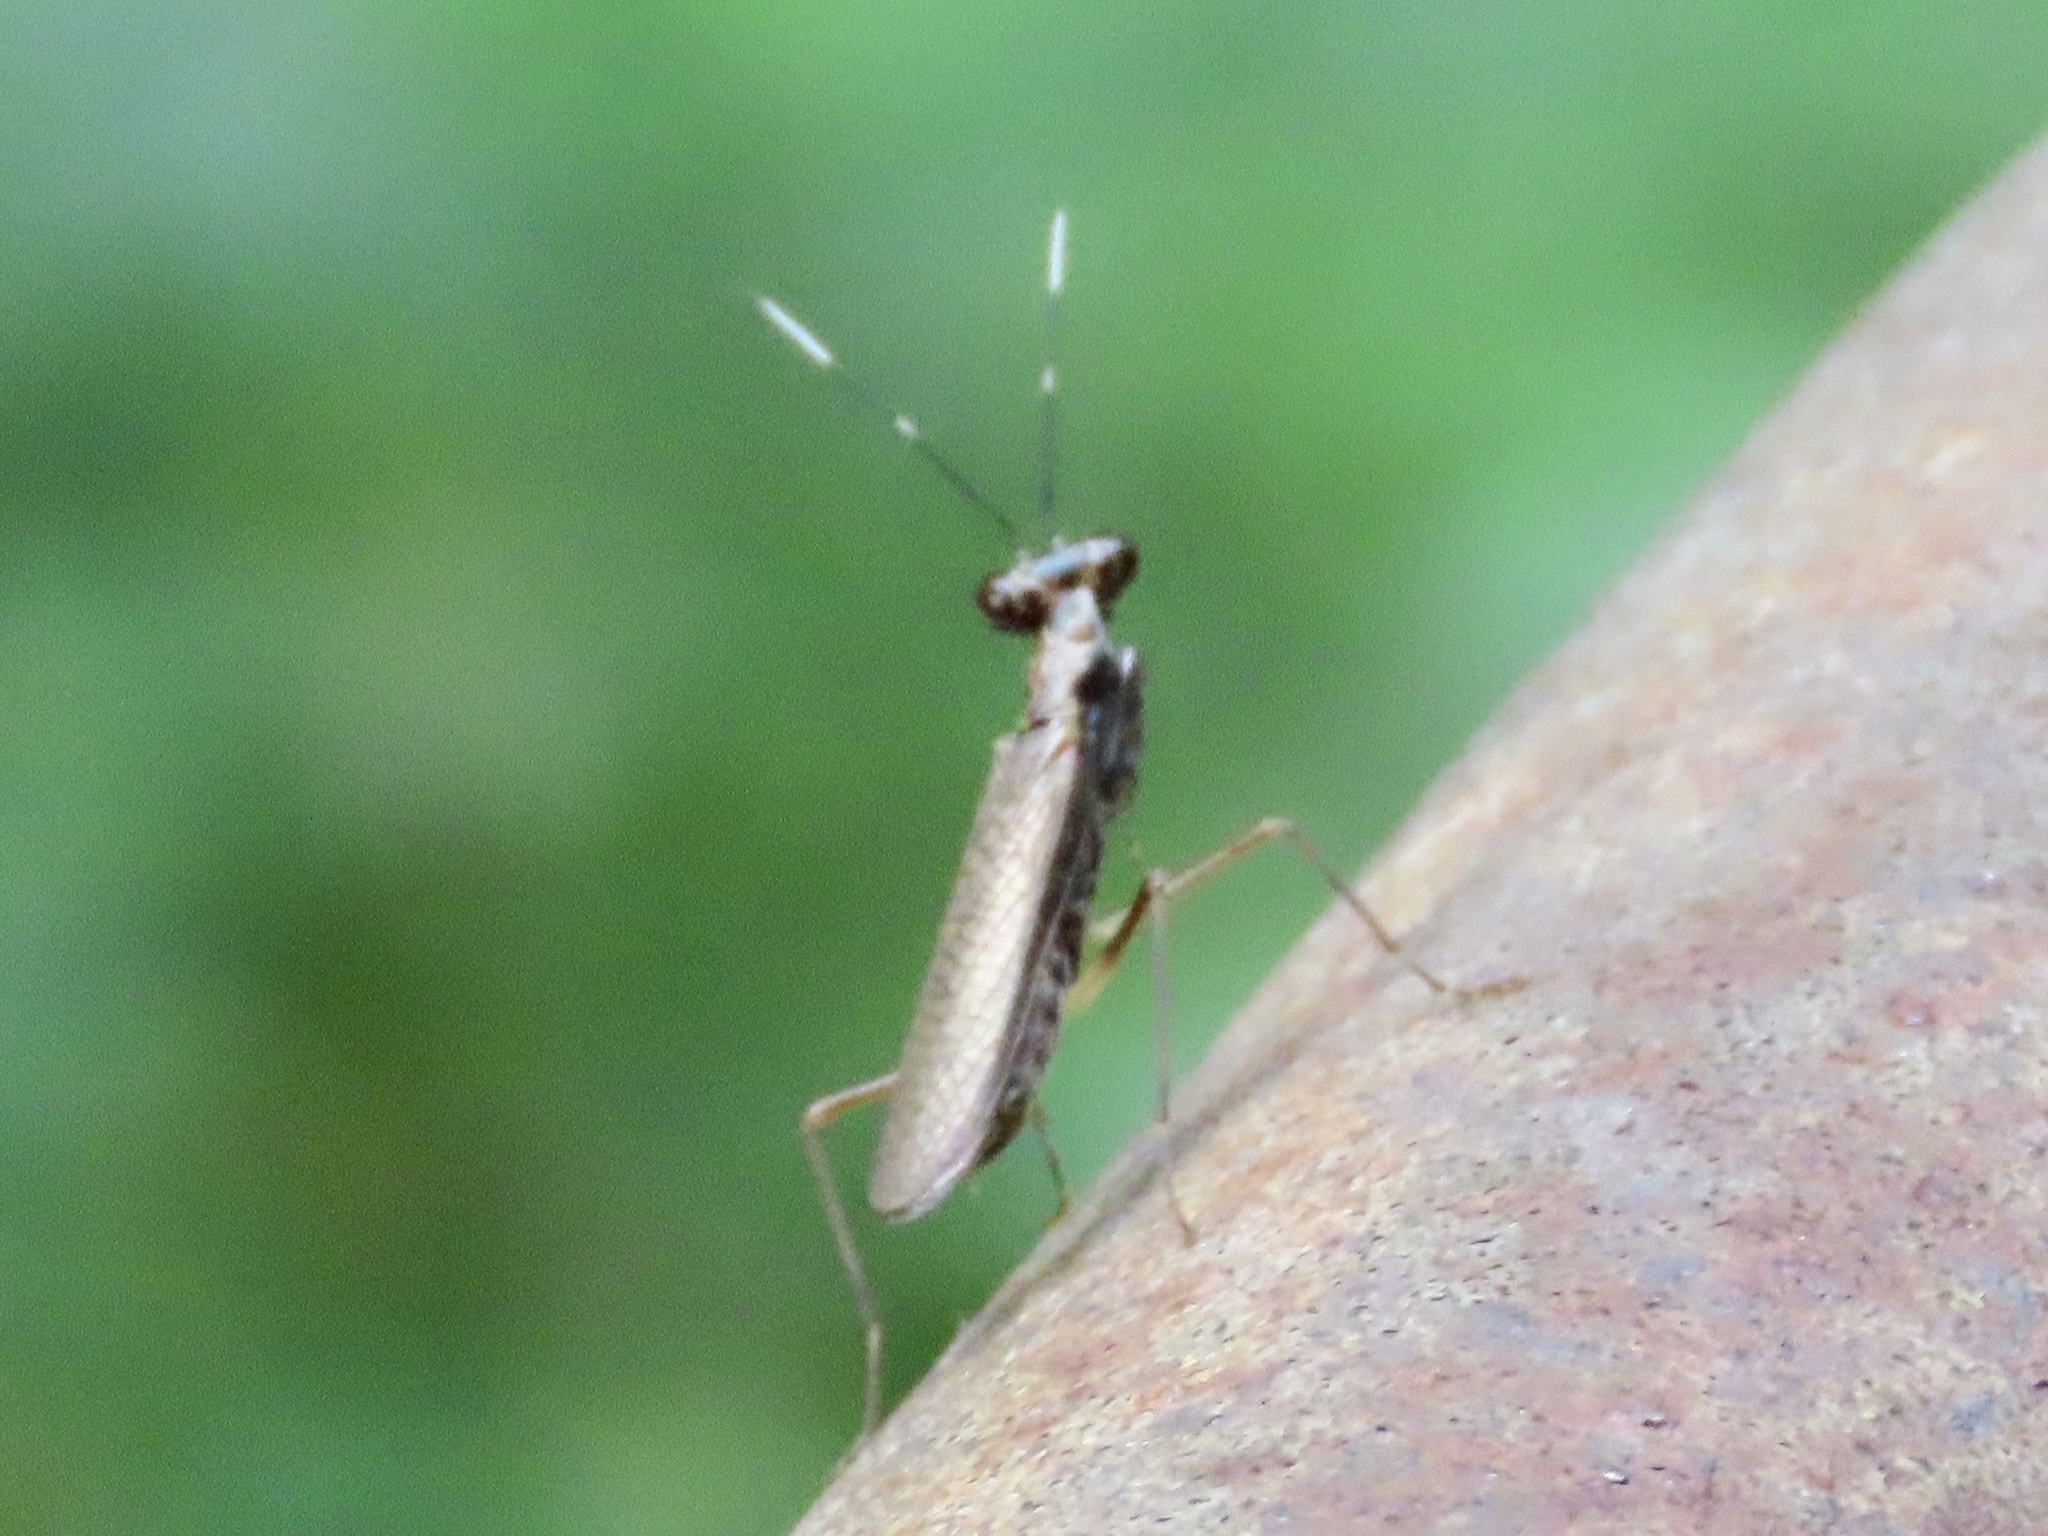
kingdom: Animalia
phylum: Arthropoda
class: Insecta
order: Mantodea
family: Gonypetidae
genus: Spilomantis
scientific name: Spilomantis occipitalis
